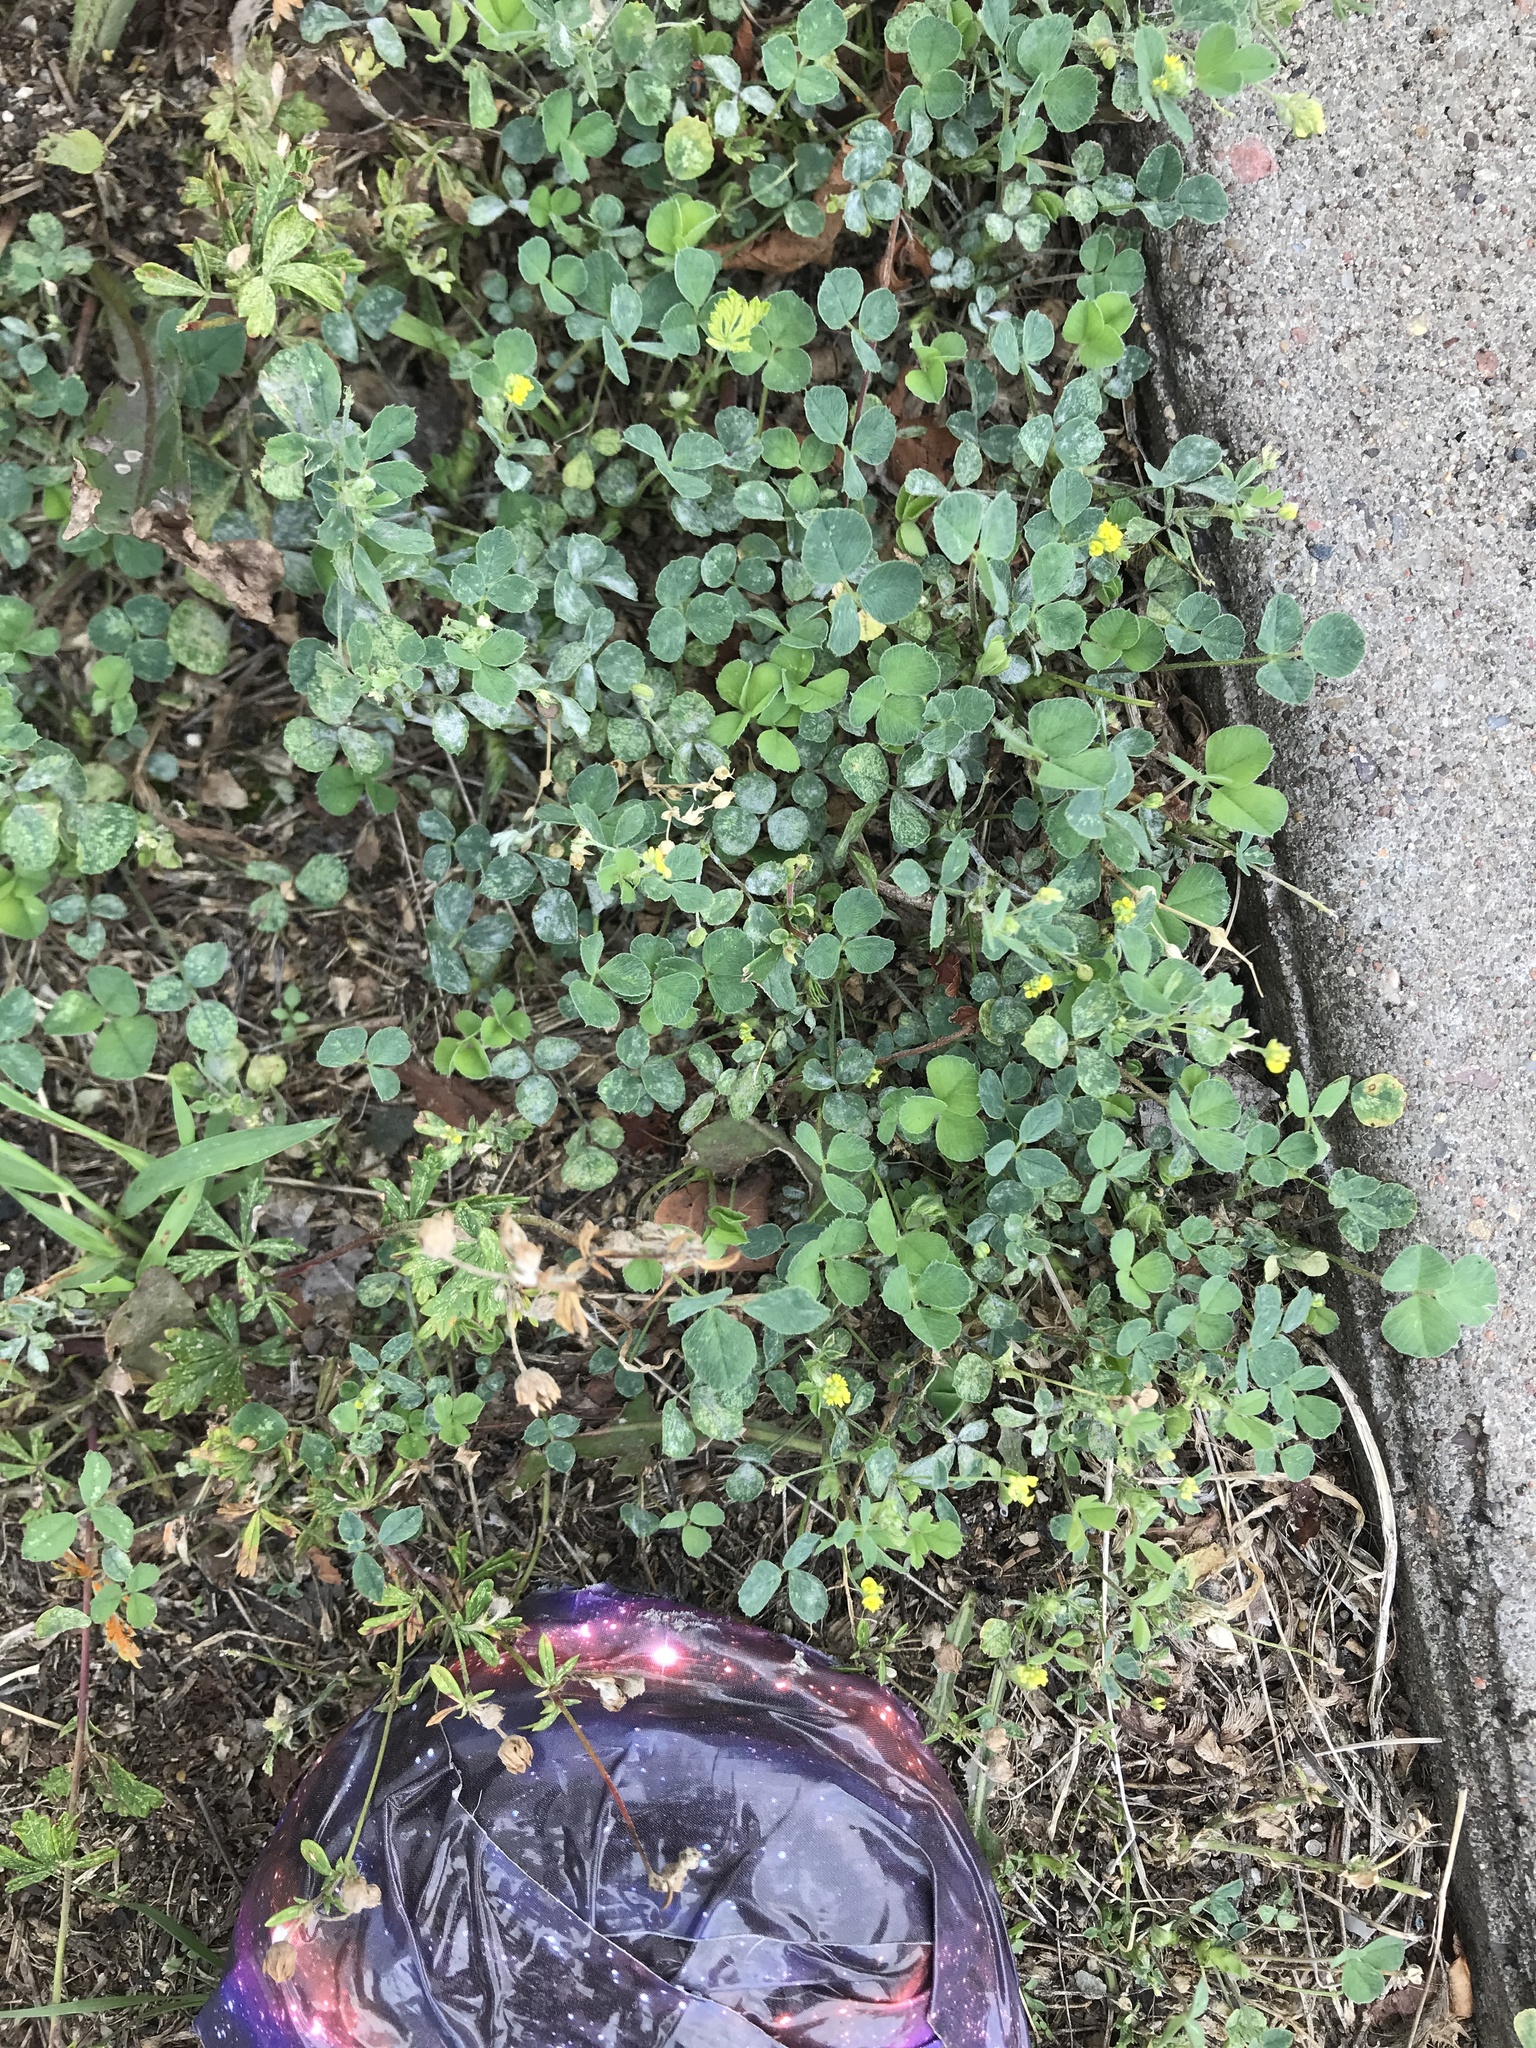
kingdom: Plantae
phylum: Tracheophyta
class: Magnoliopsida
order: Fabales
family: Fabaceae
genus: Medicago
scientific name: Medicago lupulina
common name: Black medick
